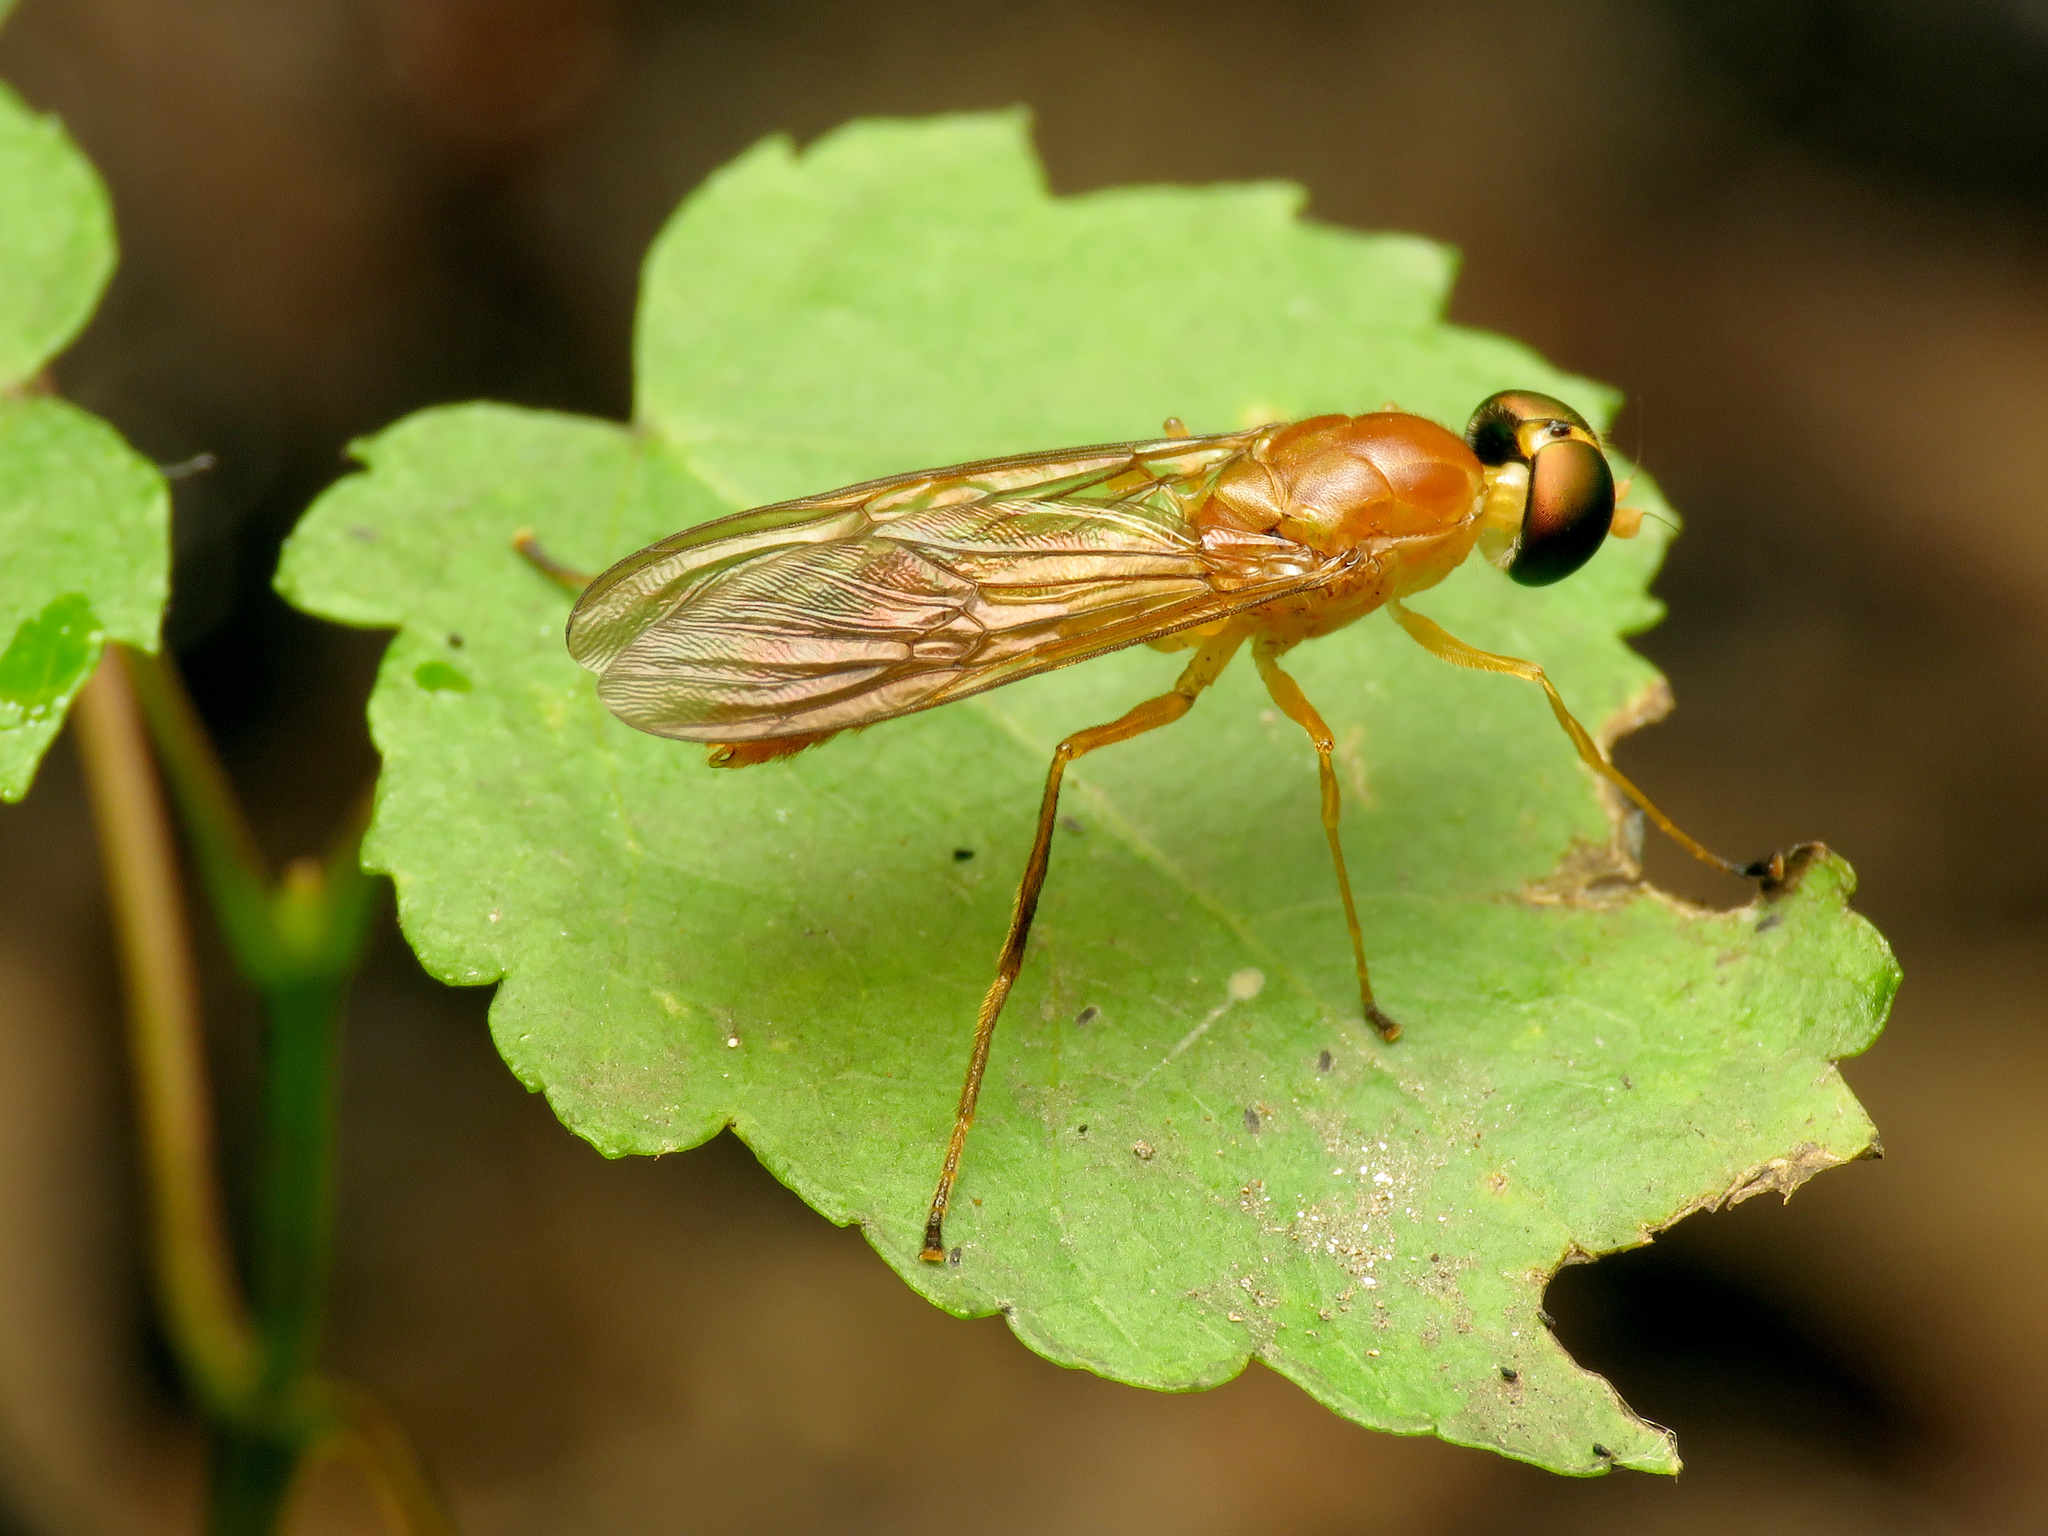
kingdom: Animalia
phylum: Arthropoda
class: Insecta
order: Diptera
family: Stratiomyidae
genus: Ptecticus
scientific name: Ptecticus trivittatus
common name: Compost fly
